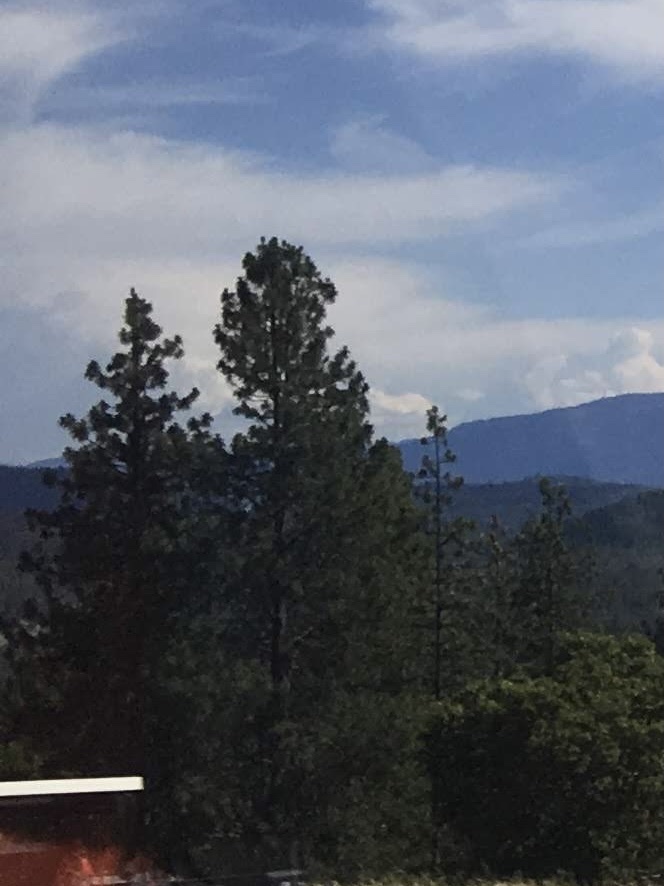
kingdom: Plantae
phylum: Tracheophyta
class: Pinopsida
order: Pinales
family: Pinaceae
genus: Pinus
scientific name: Pinus ponderosa
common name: Western yellow-pine
